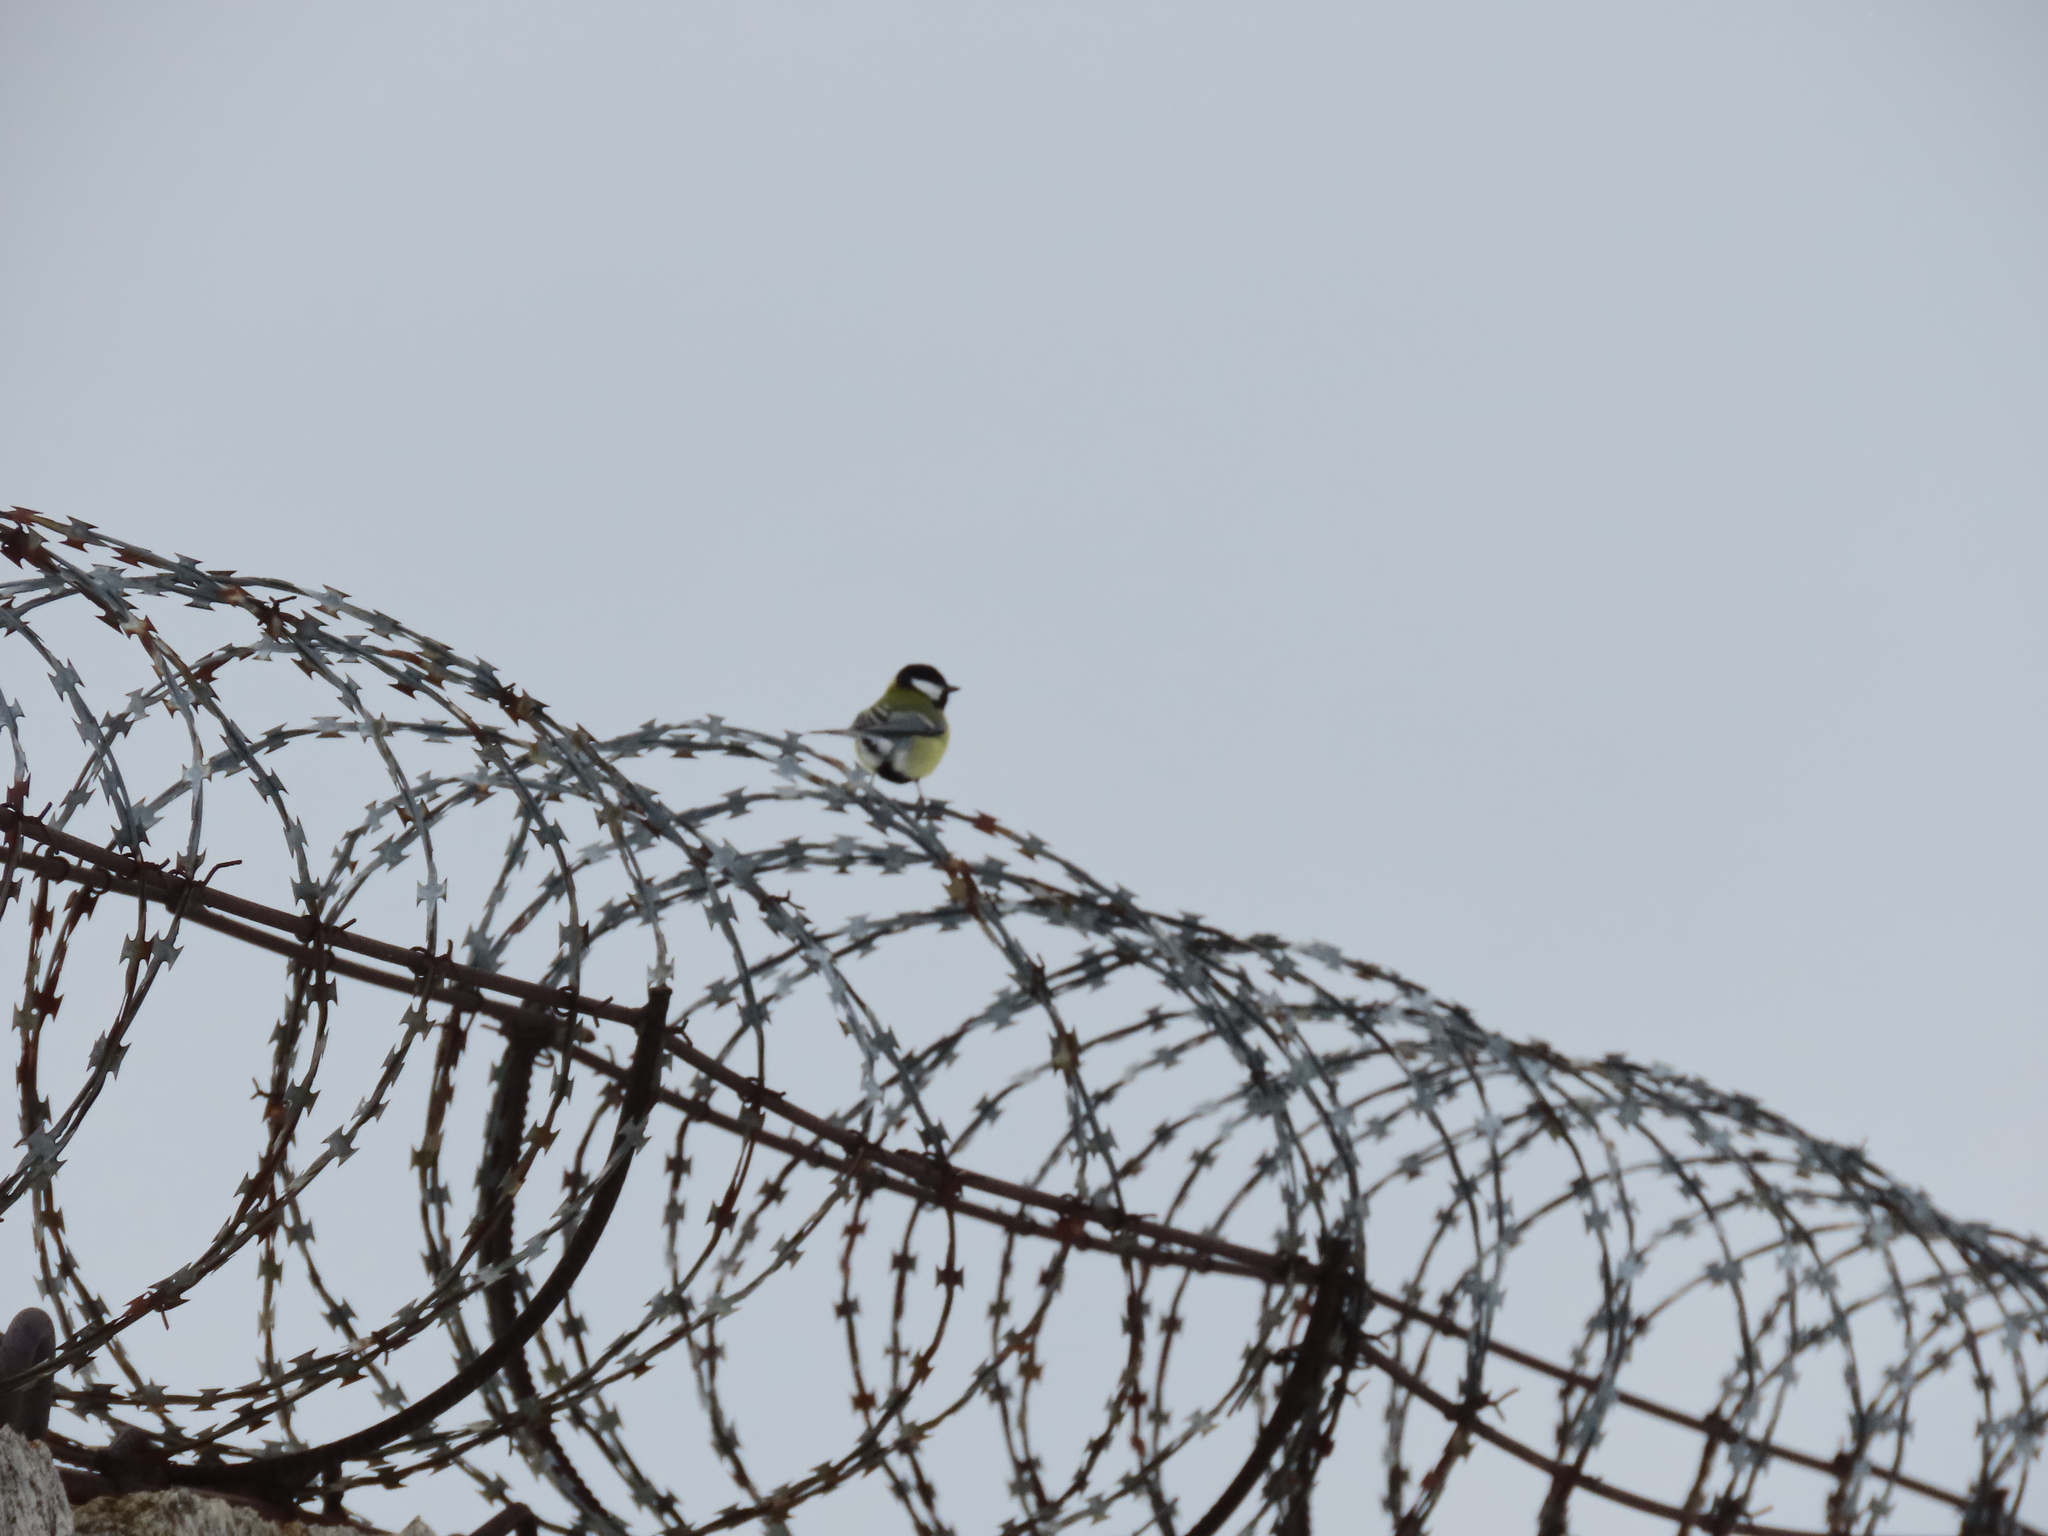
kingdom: Animalia
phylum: Chordata
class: Aves
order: Passeriformes
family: Paridae
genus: Parus
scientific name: Parus major
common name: Great tit
